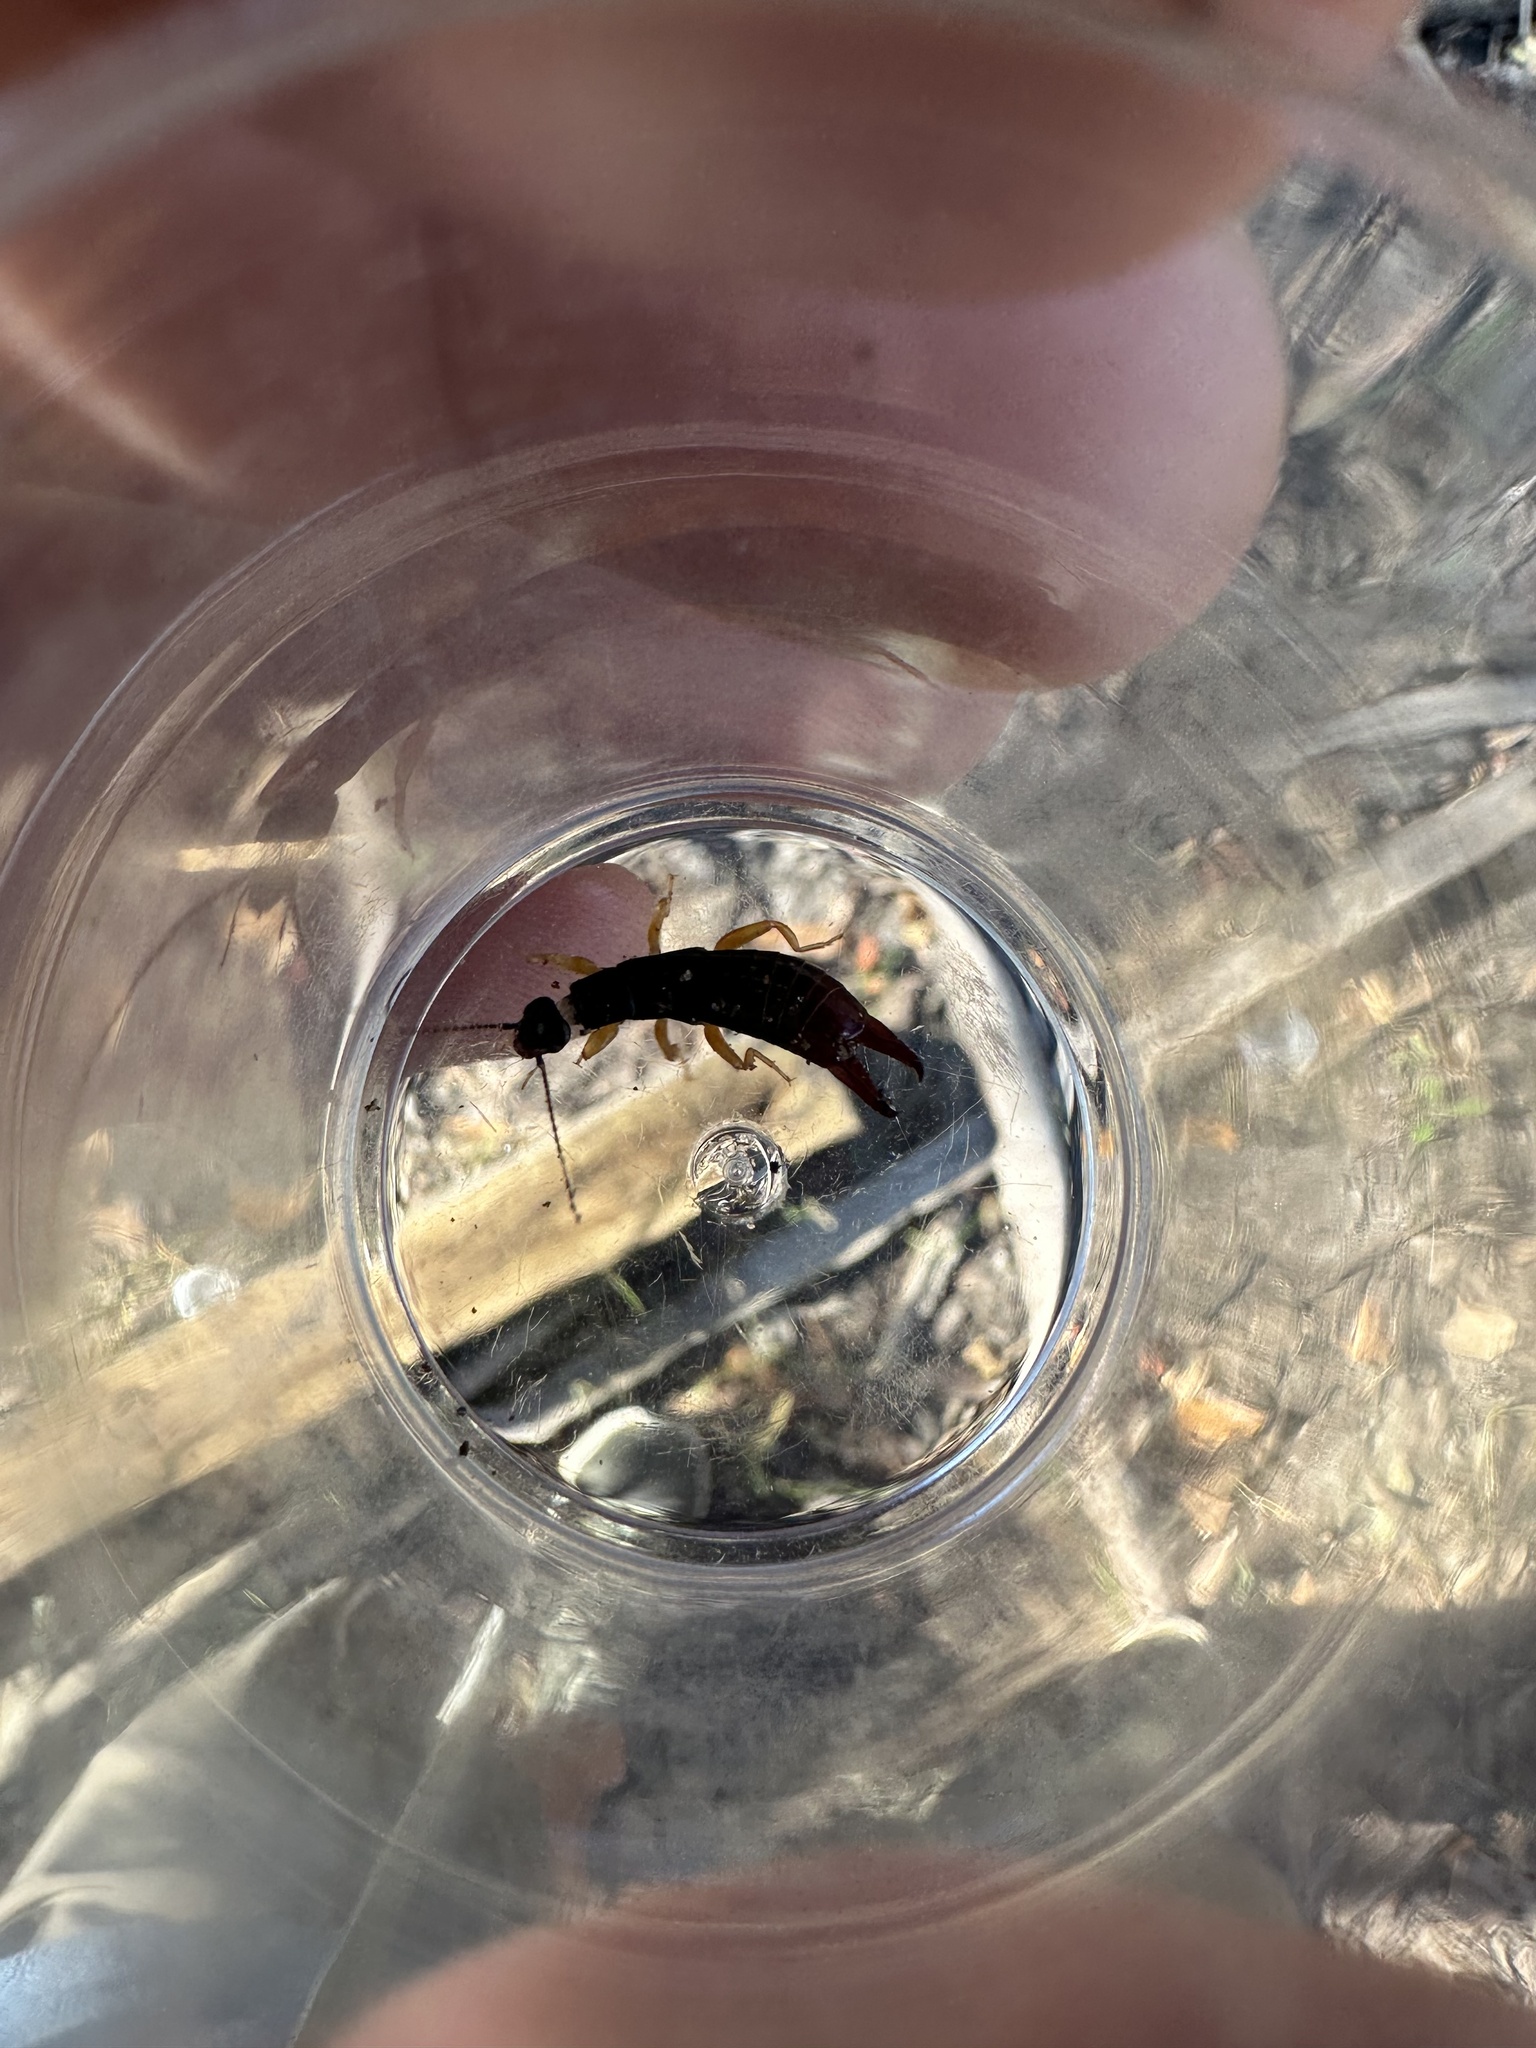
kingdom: Animalia
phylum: Arthropoda
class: Insecta
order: Dermaptera
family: Anisolabididae
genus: Euborellia
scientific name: Euborellia arcanum
